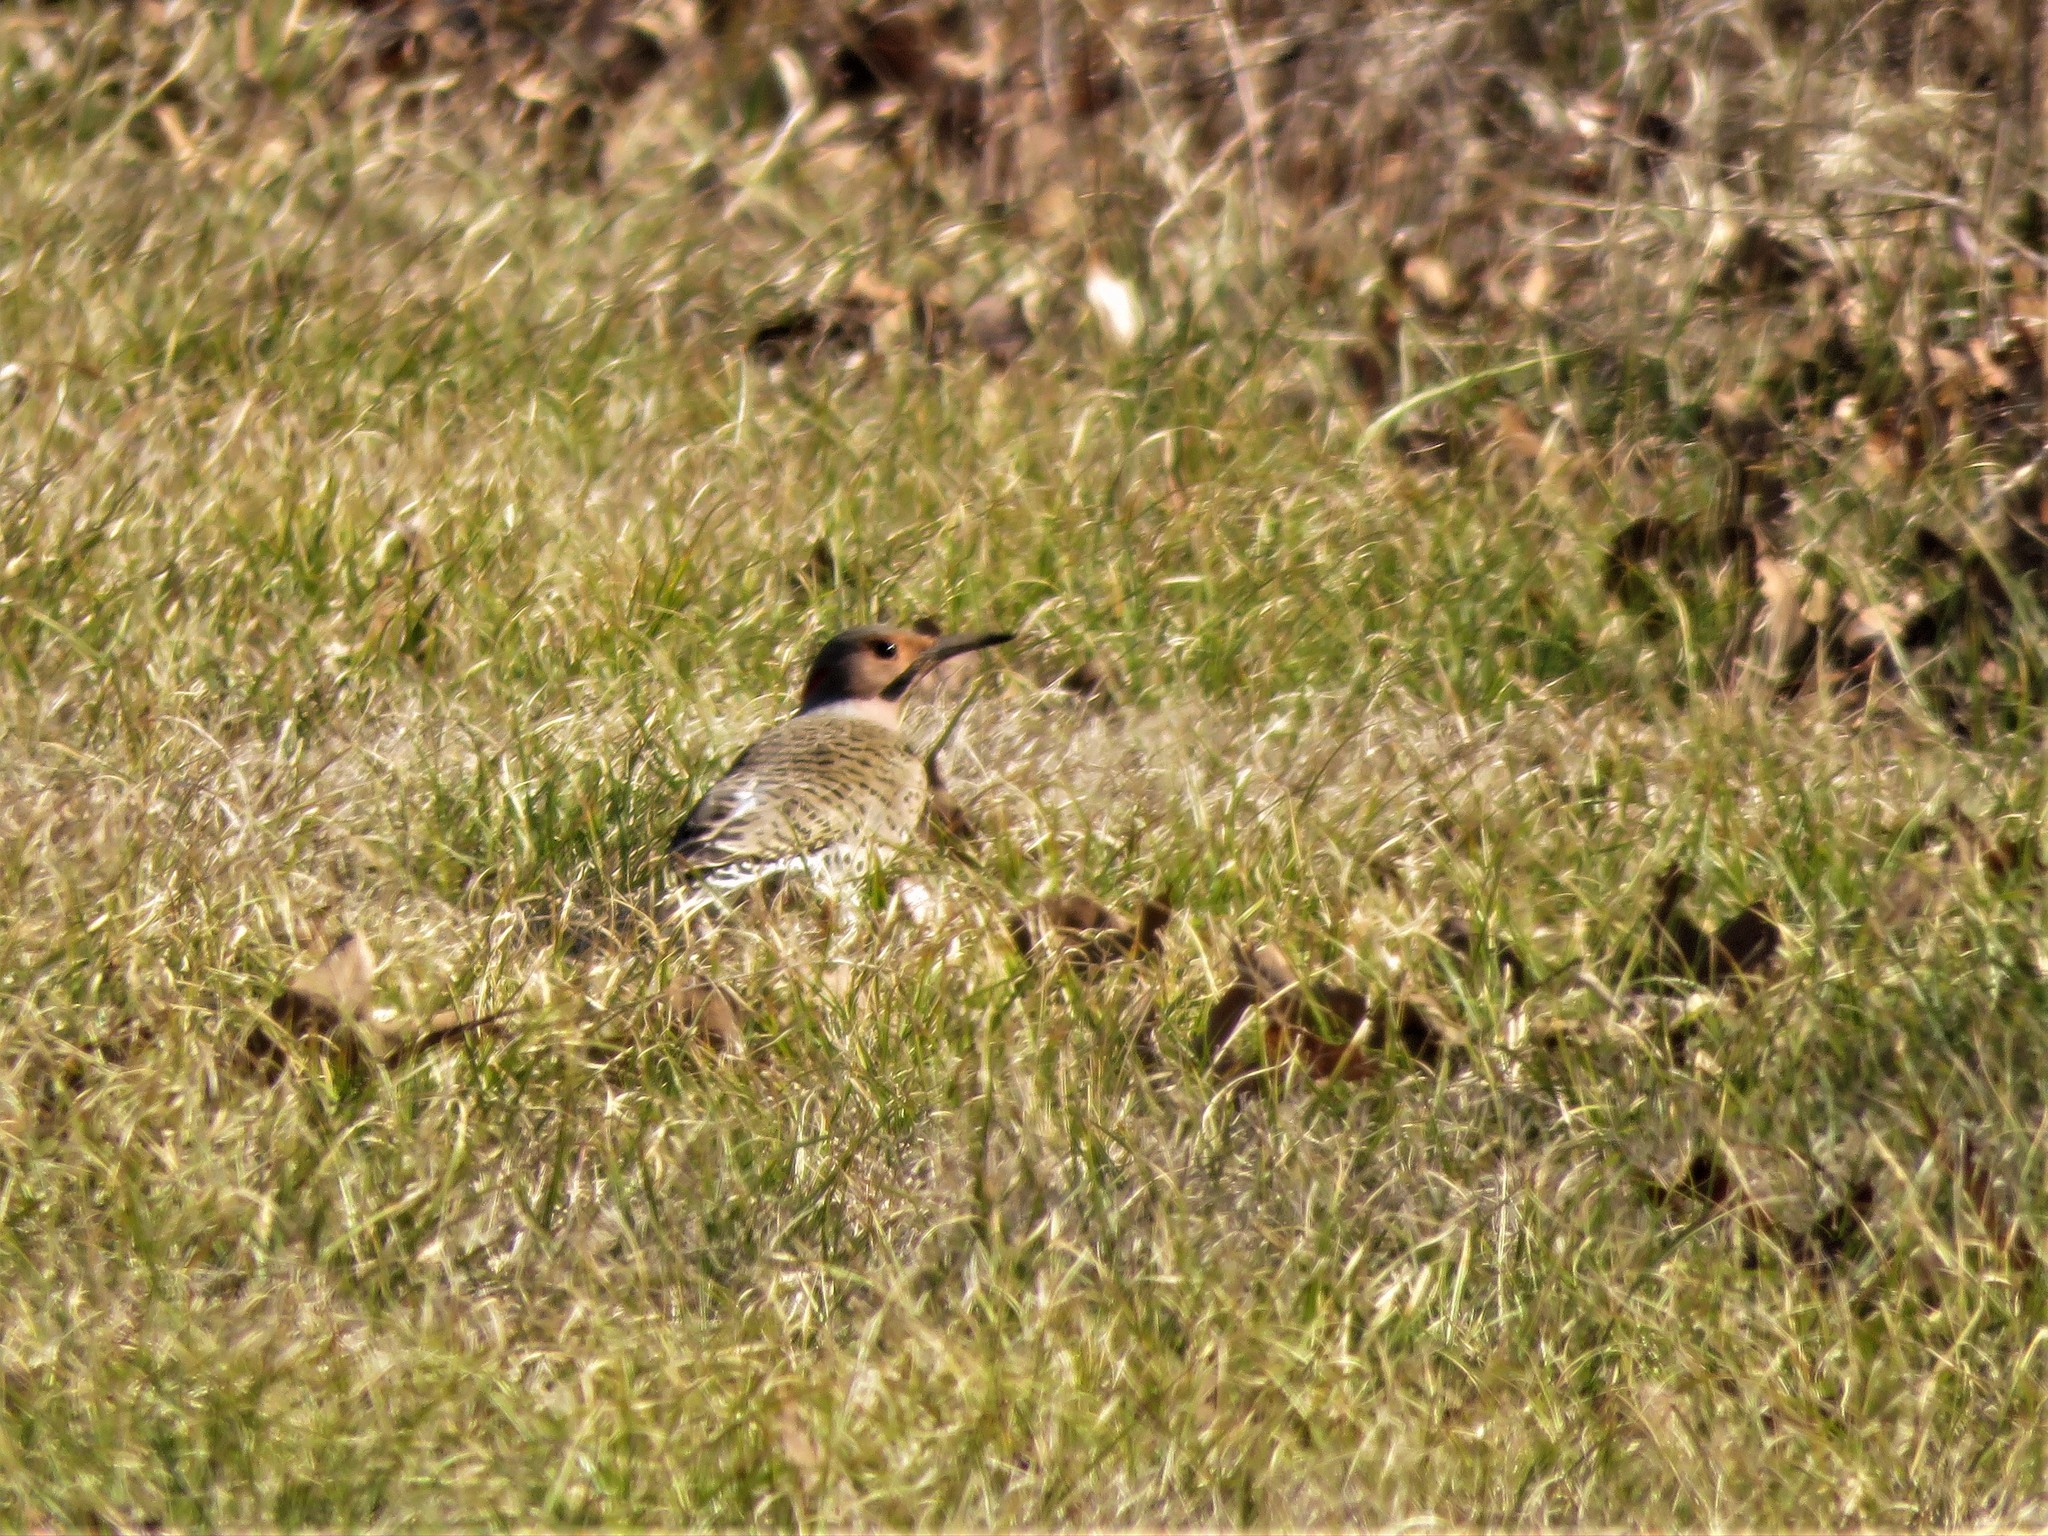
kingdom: Animalia
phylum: Chordata
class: Aves
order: Piciformes
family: Picidae
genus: Colaptes
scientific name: Colaptes auratus
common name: Northern flicker
